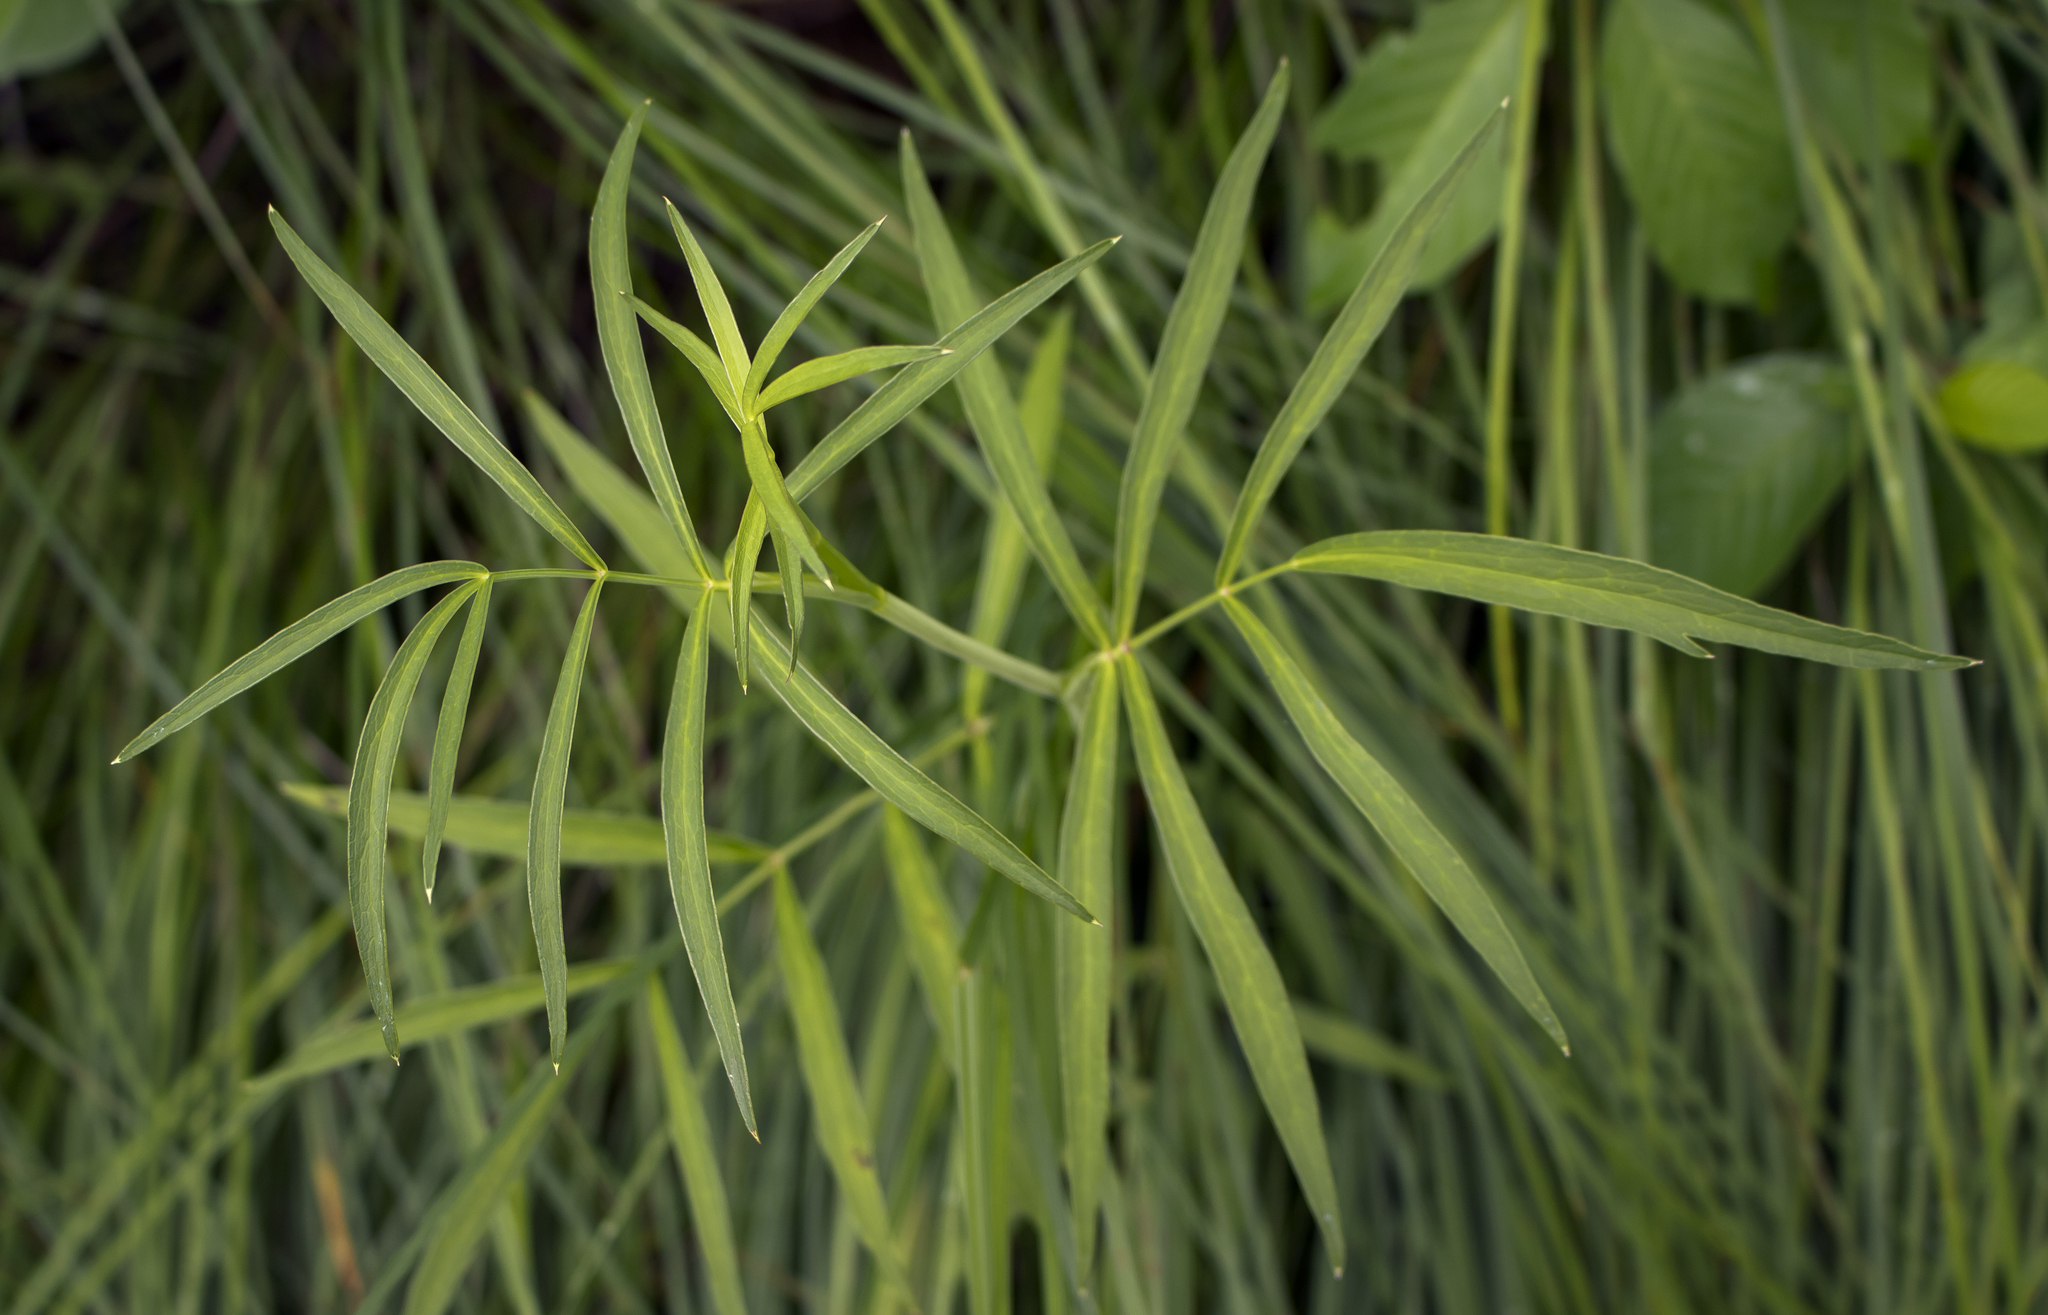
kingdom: Plantae
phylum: Tracheophyta
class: Magnoliopsida
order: Apiales
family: Apiaceae
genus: Oxypolis
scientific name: Oxypolis rigidior
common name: Cowbane
